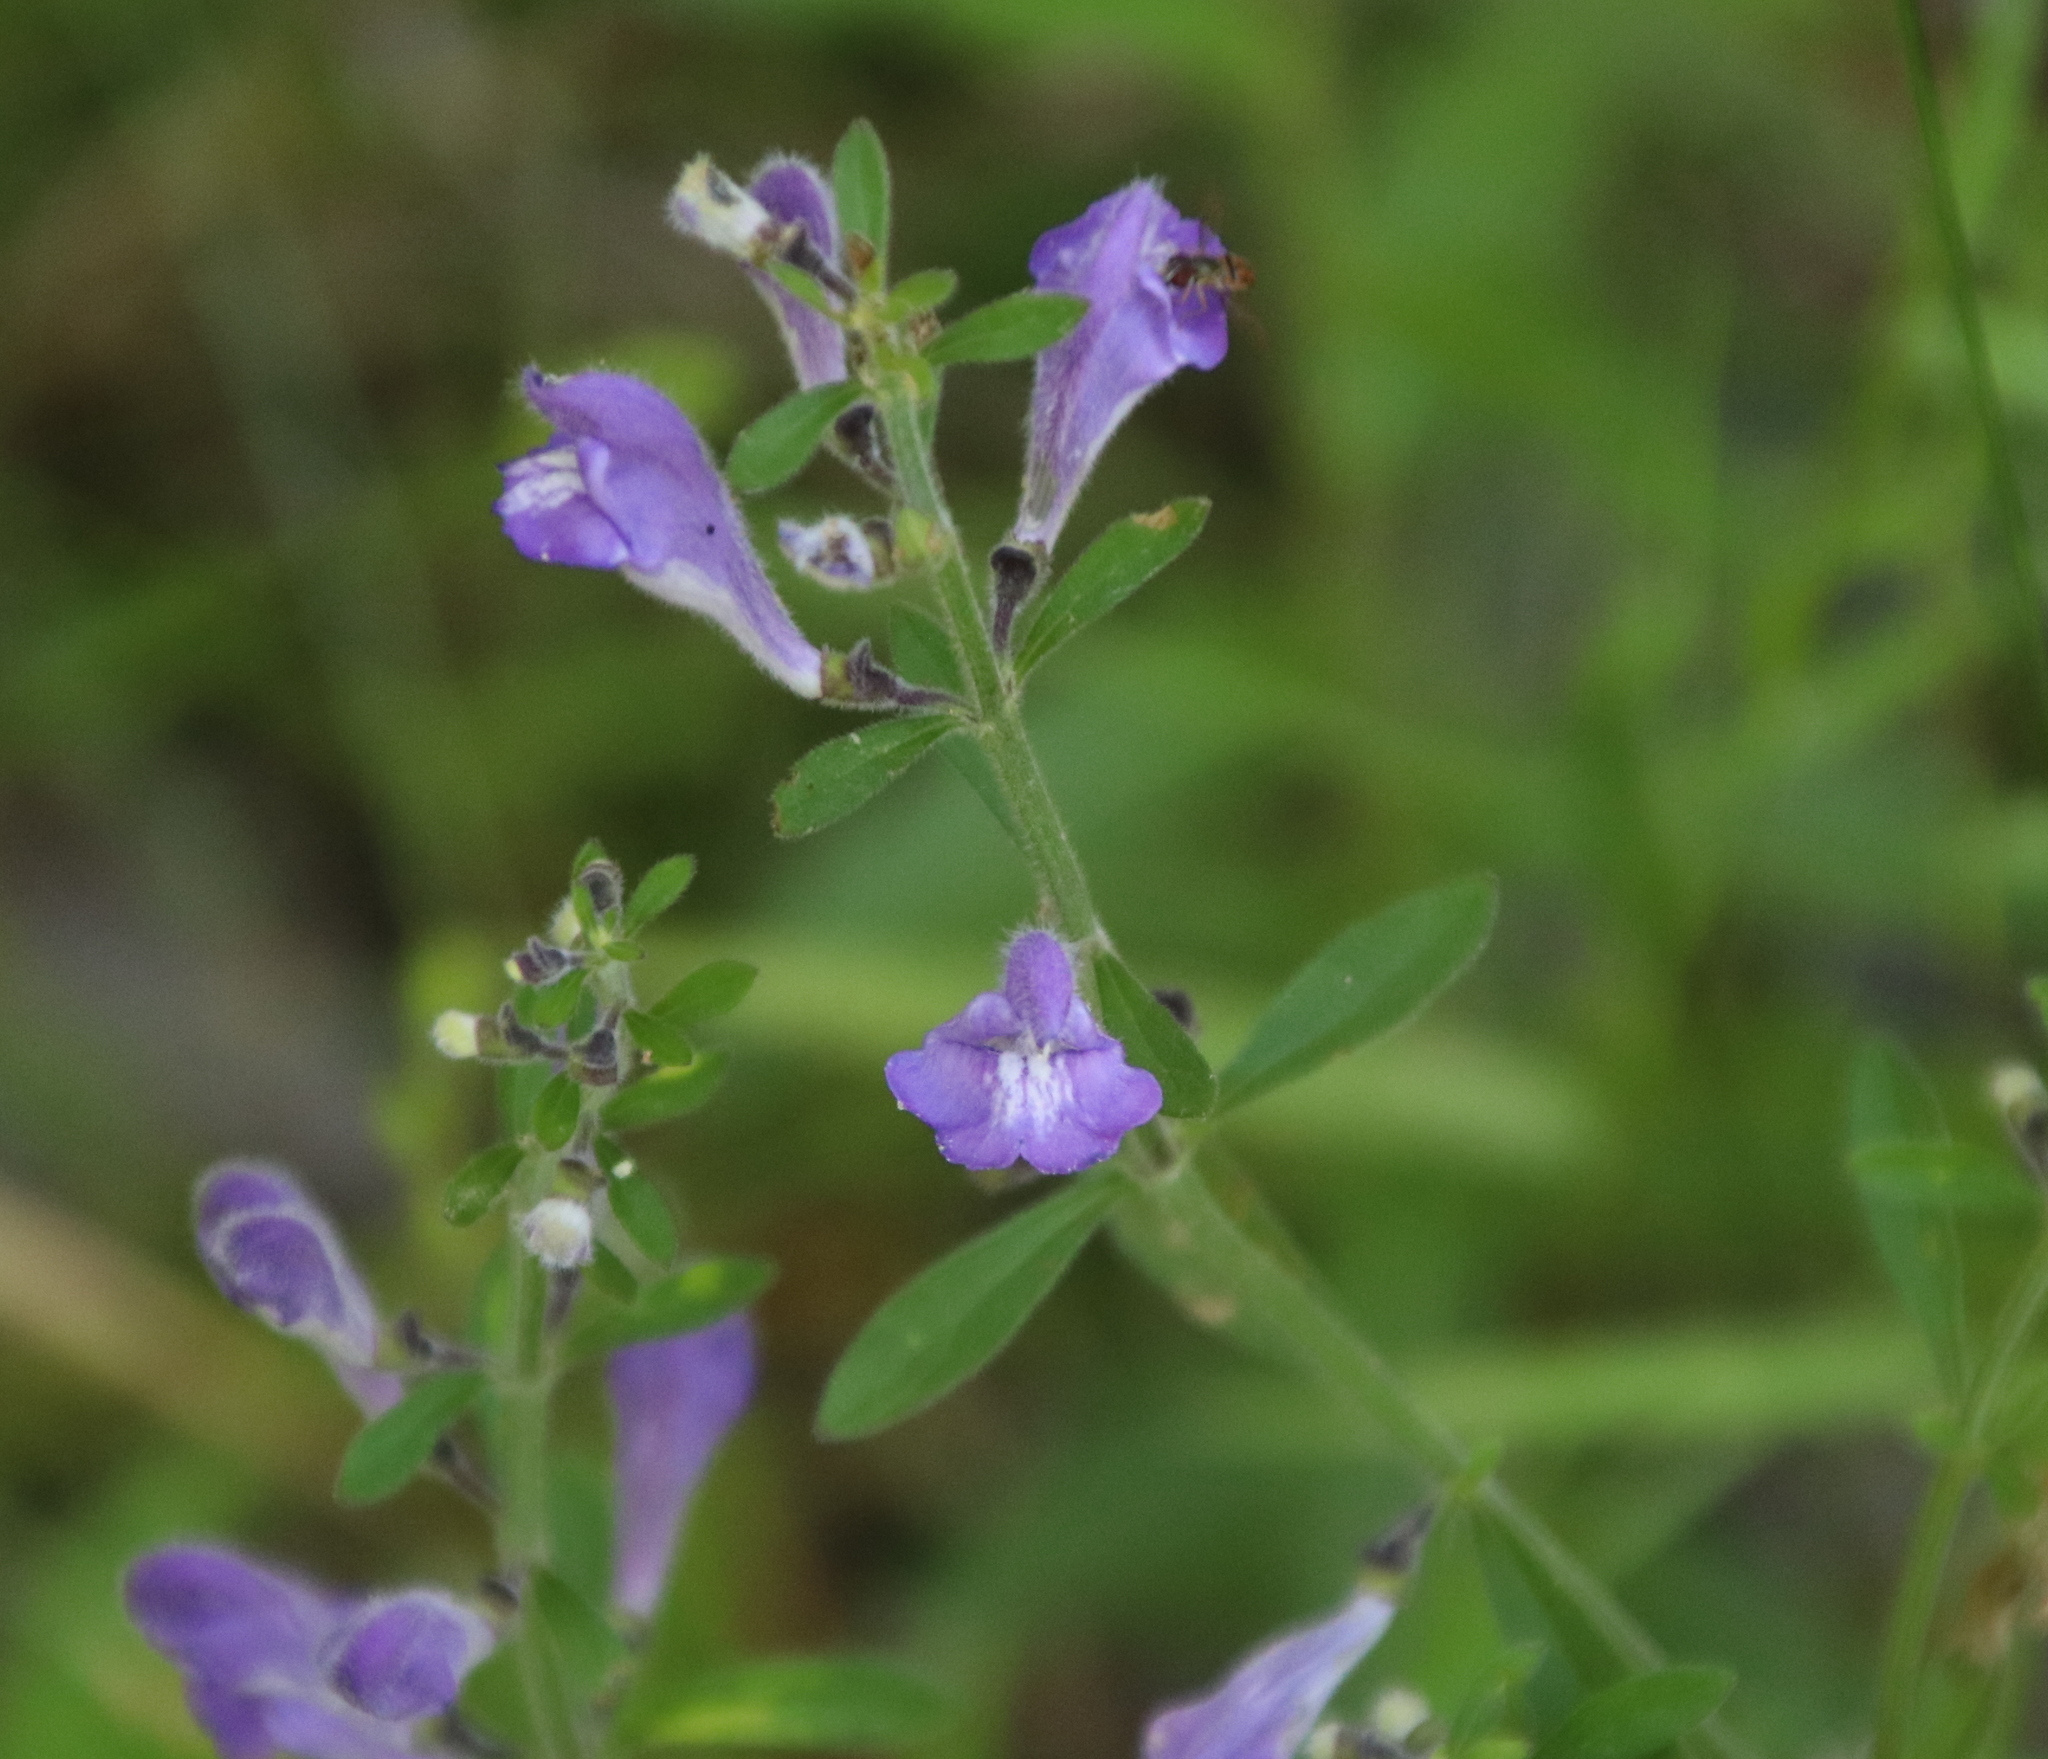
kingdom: Plantae
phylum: Tracheophyta
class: Magnoliopsida
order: Lamiales
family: Lamiaceae
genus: Scutellaria
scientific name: Scutellaria integrifolia
